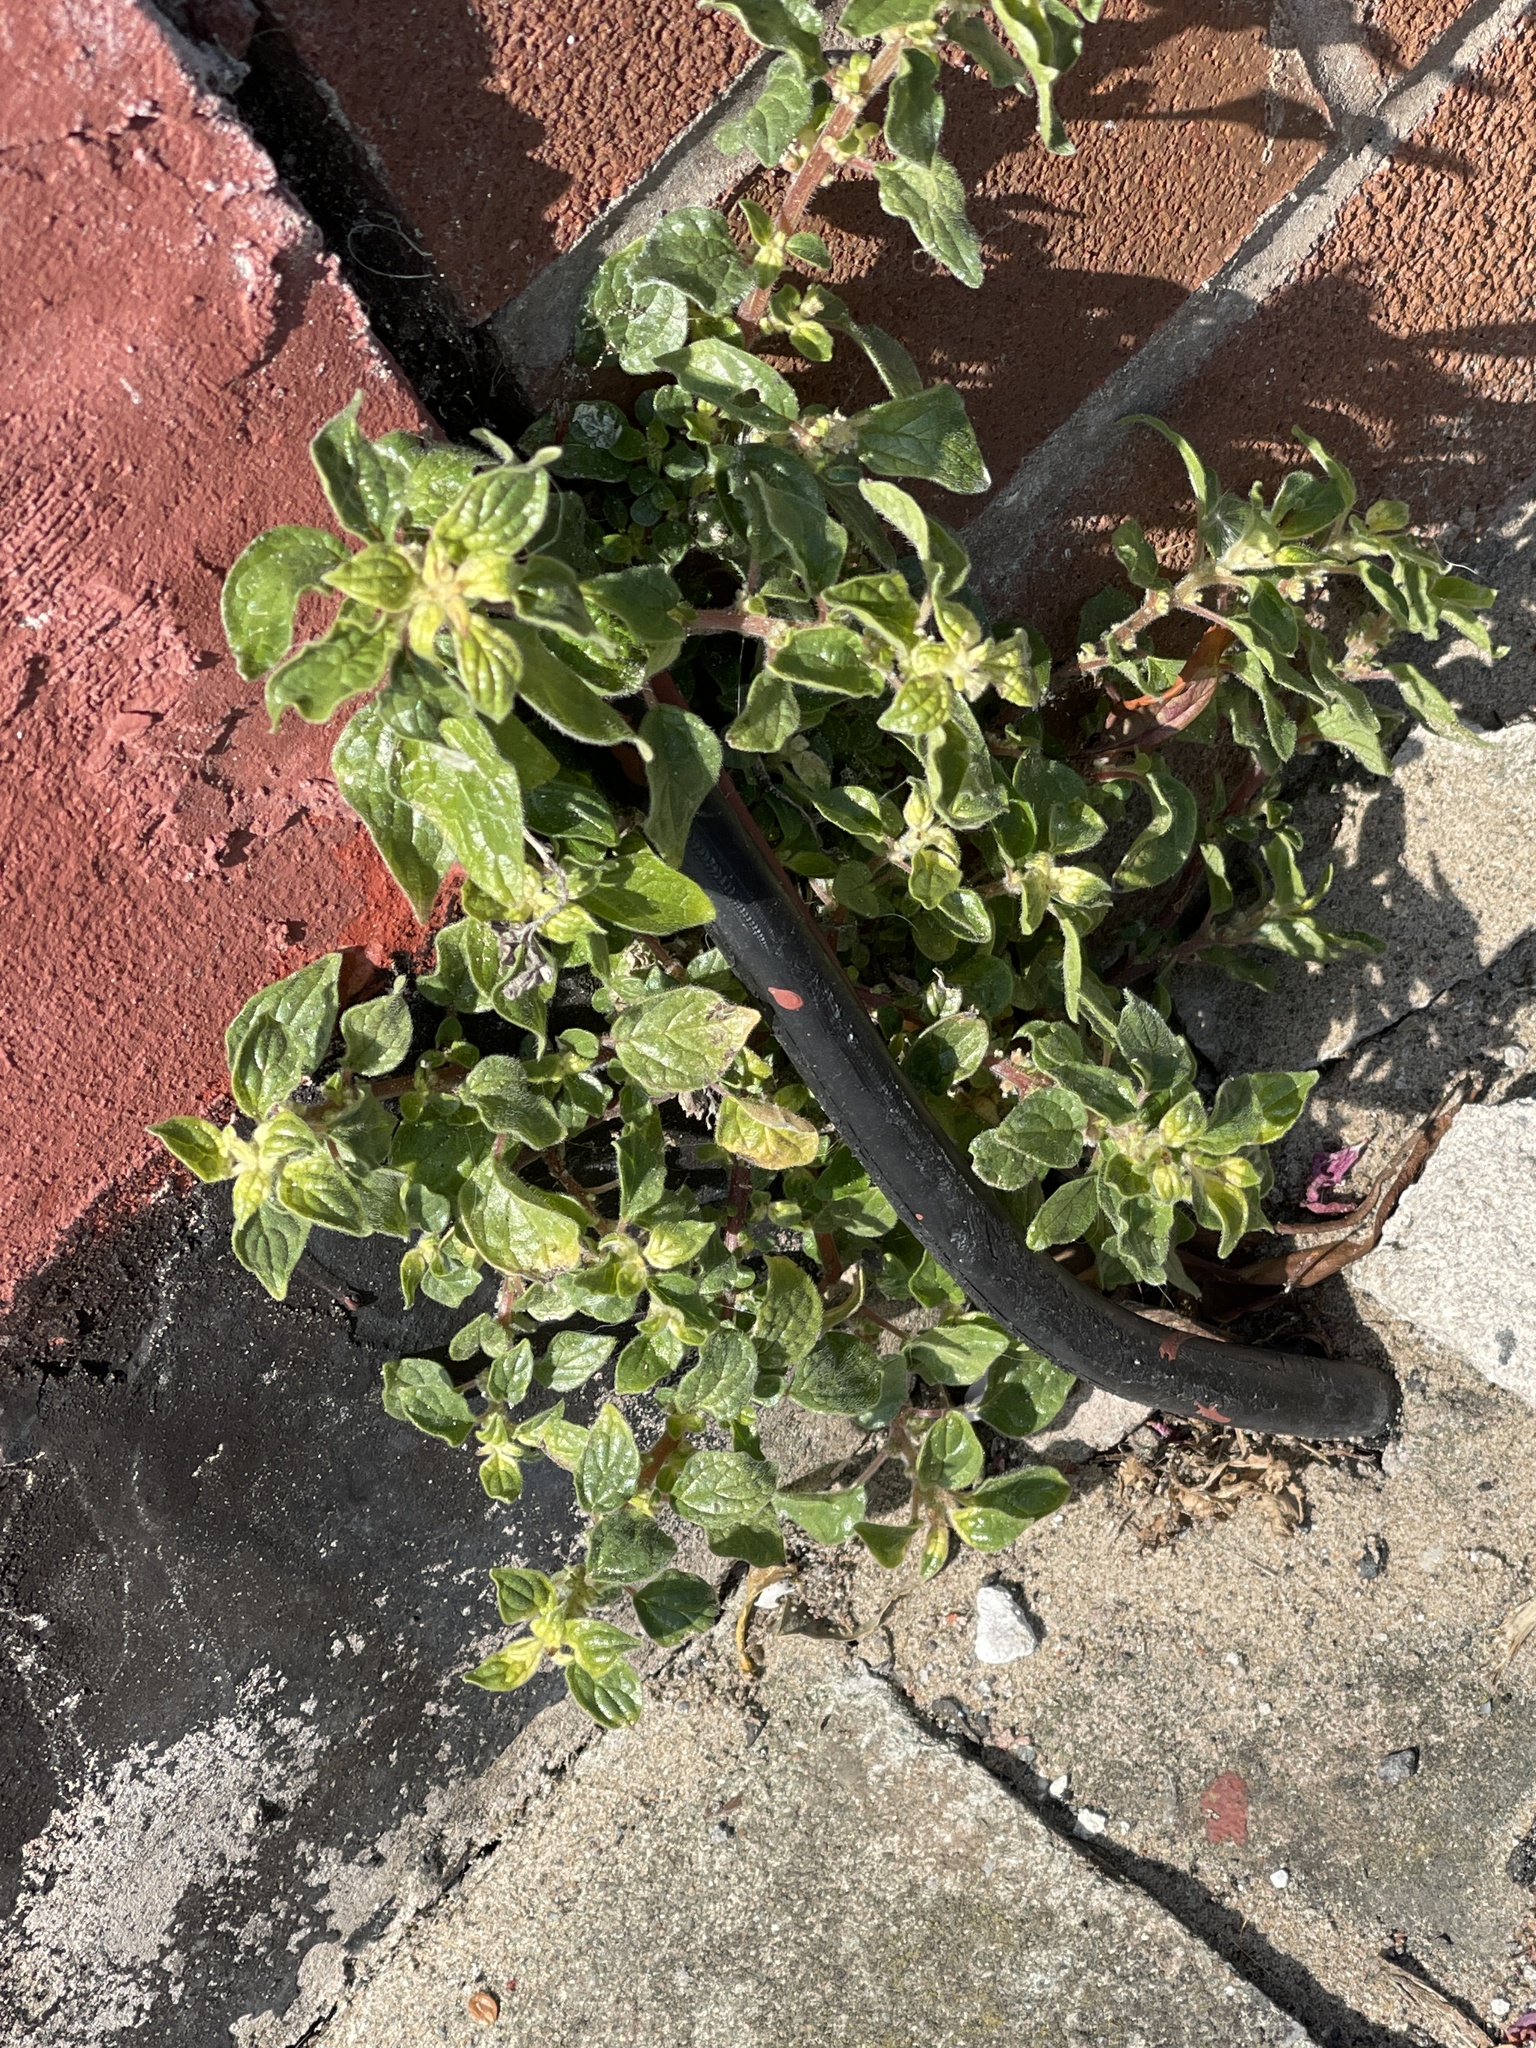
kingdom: Plantae
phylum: Tracheophyta
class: Magnoliopsida
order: Rosales
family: Urticaceae
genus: Parietaria
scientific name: Parietaria judaica
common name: Pellitory-of-the-wall
